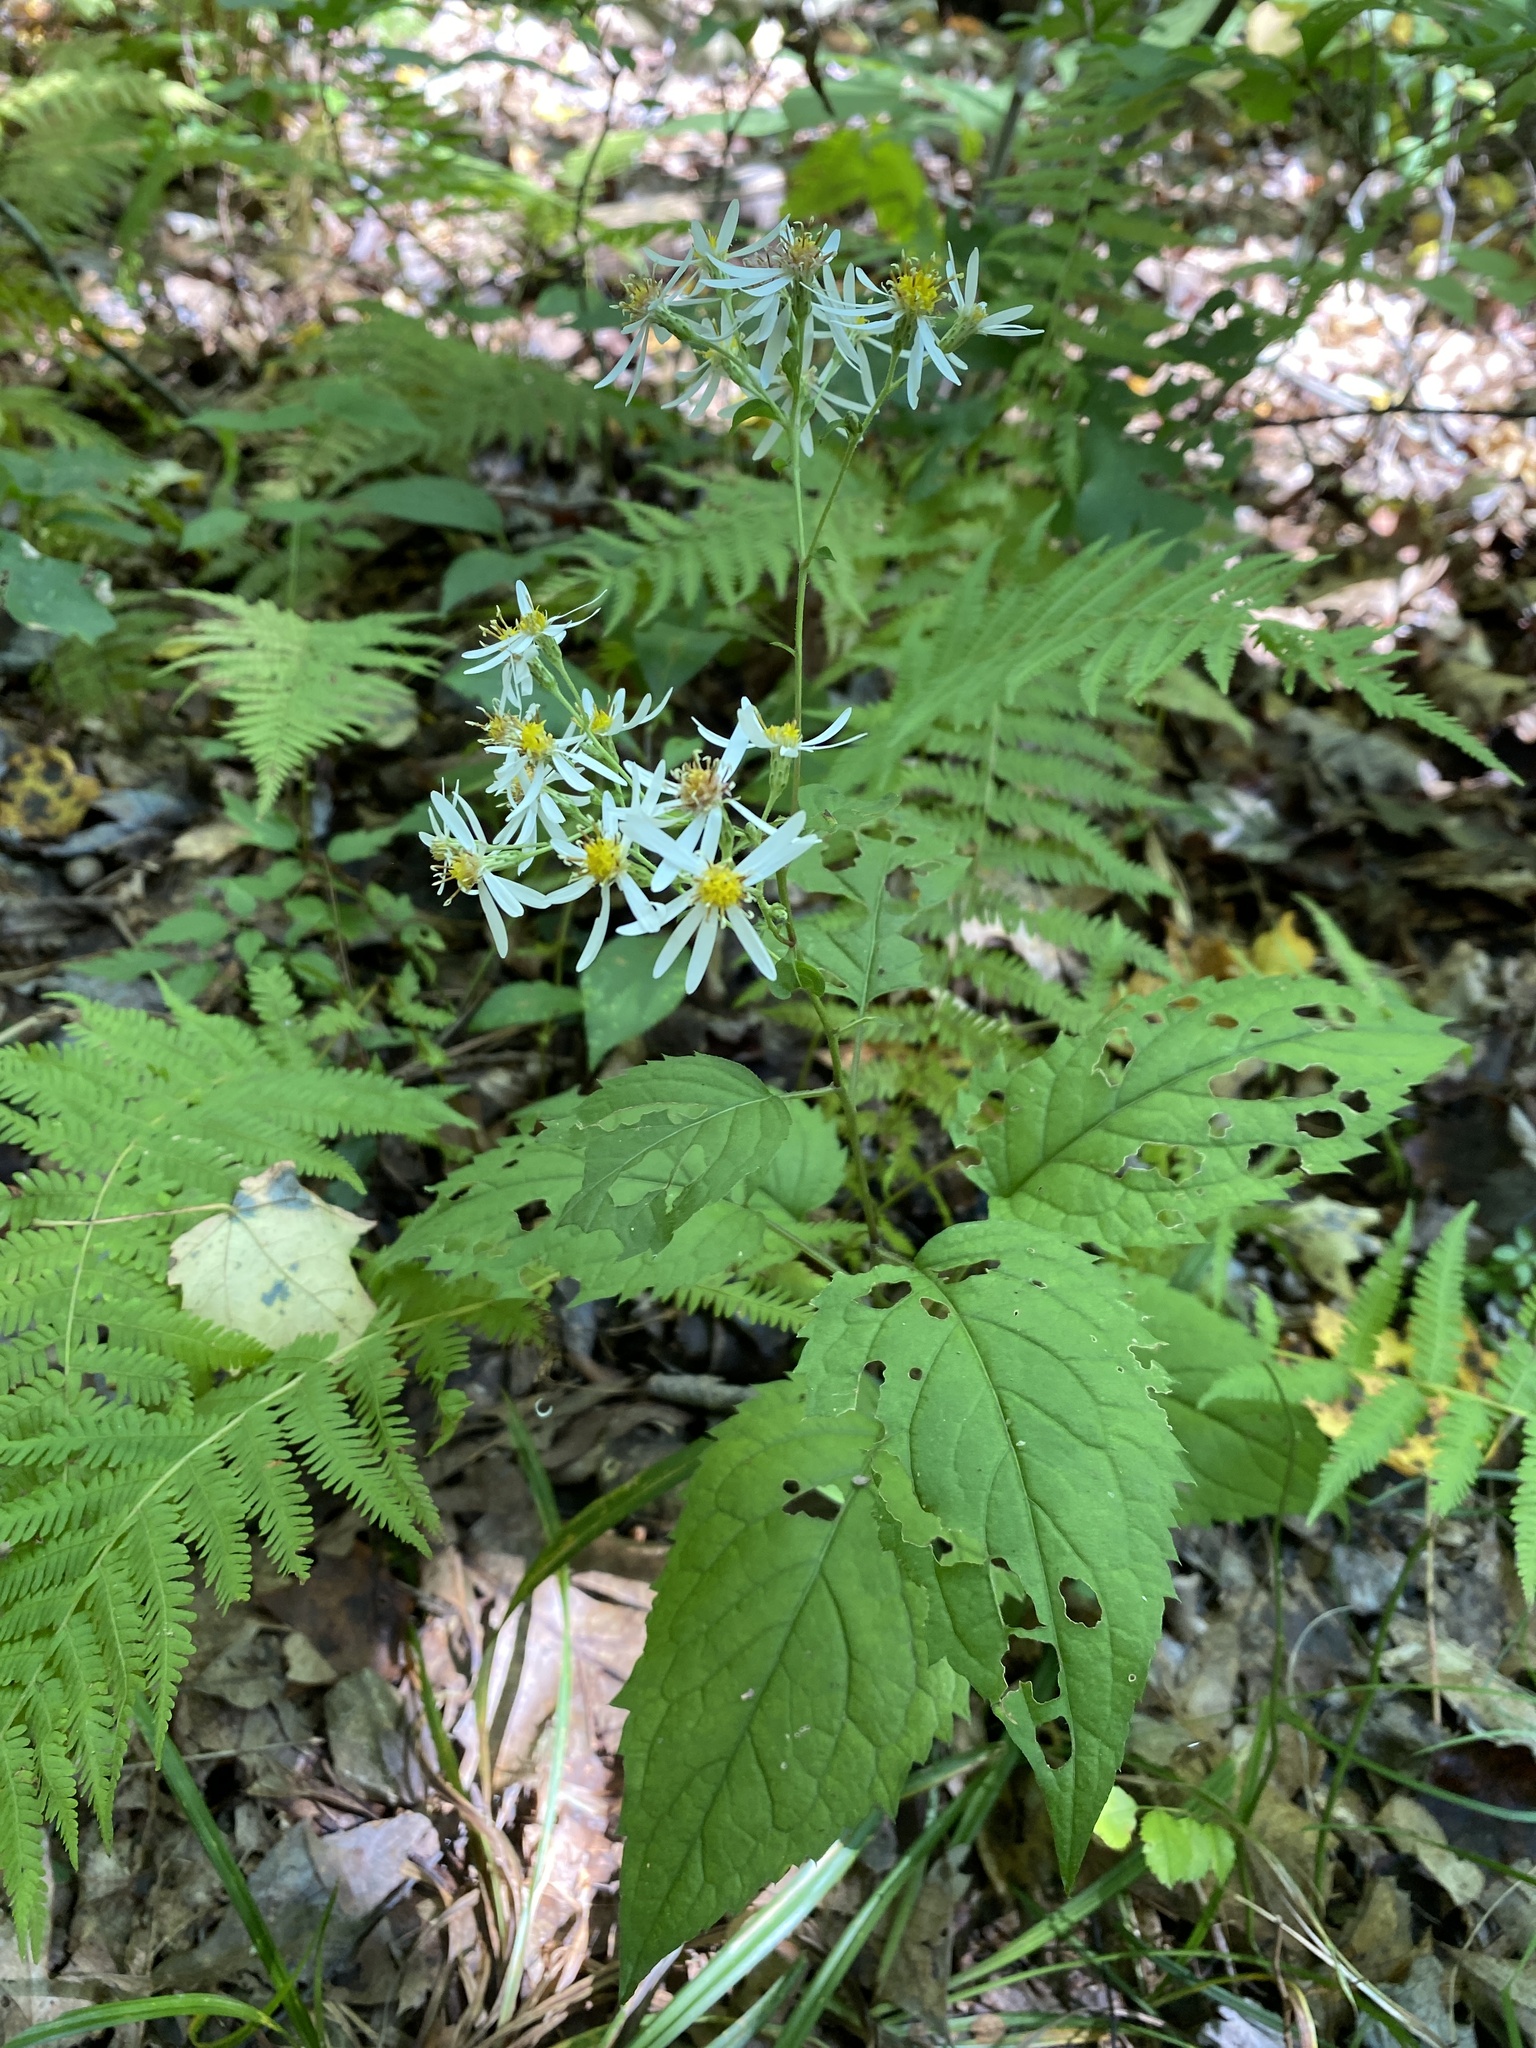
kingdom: Plantae
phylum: Tracheophyta
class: Magnoliopsida
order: Asterales
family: Asteraceae
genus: Eurybia
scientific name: Eurybia divaricata
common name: White wood aster
